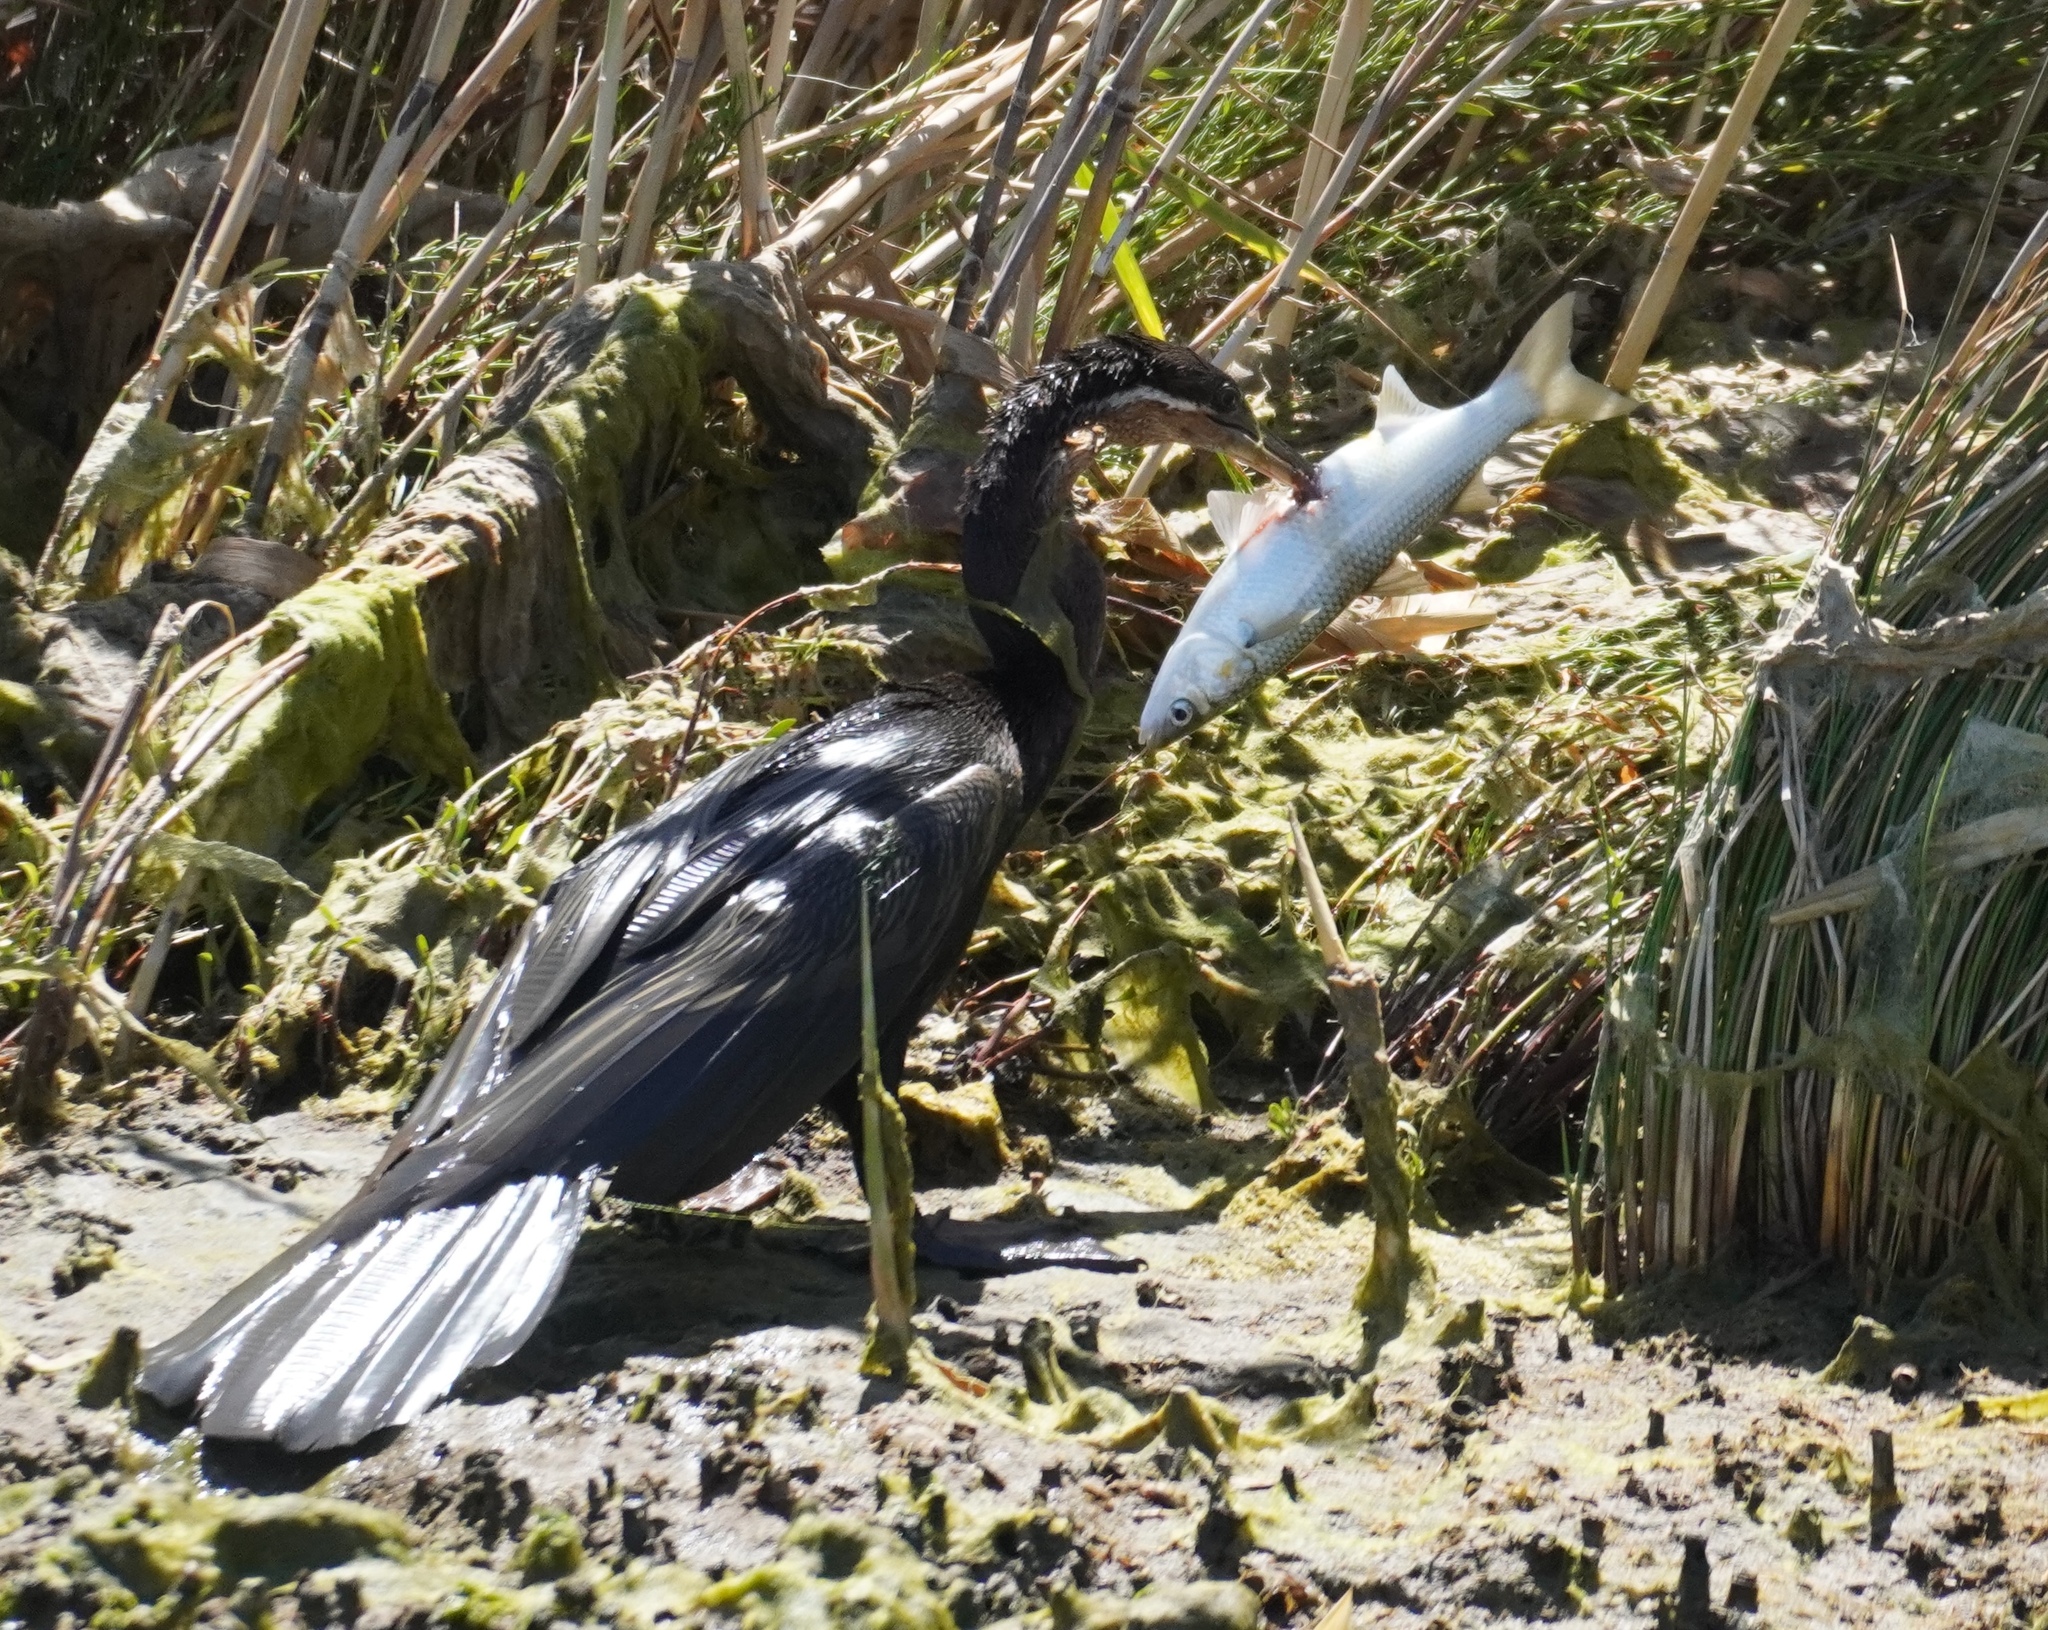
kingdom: Animalia
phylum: Chordata
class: Aves
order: Suliformes
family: Anhingidae
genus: Anhinga
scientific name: Anhinga rufa
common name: African darter
